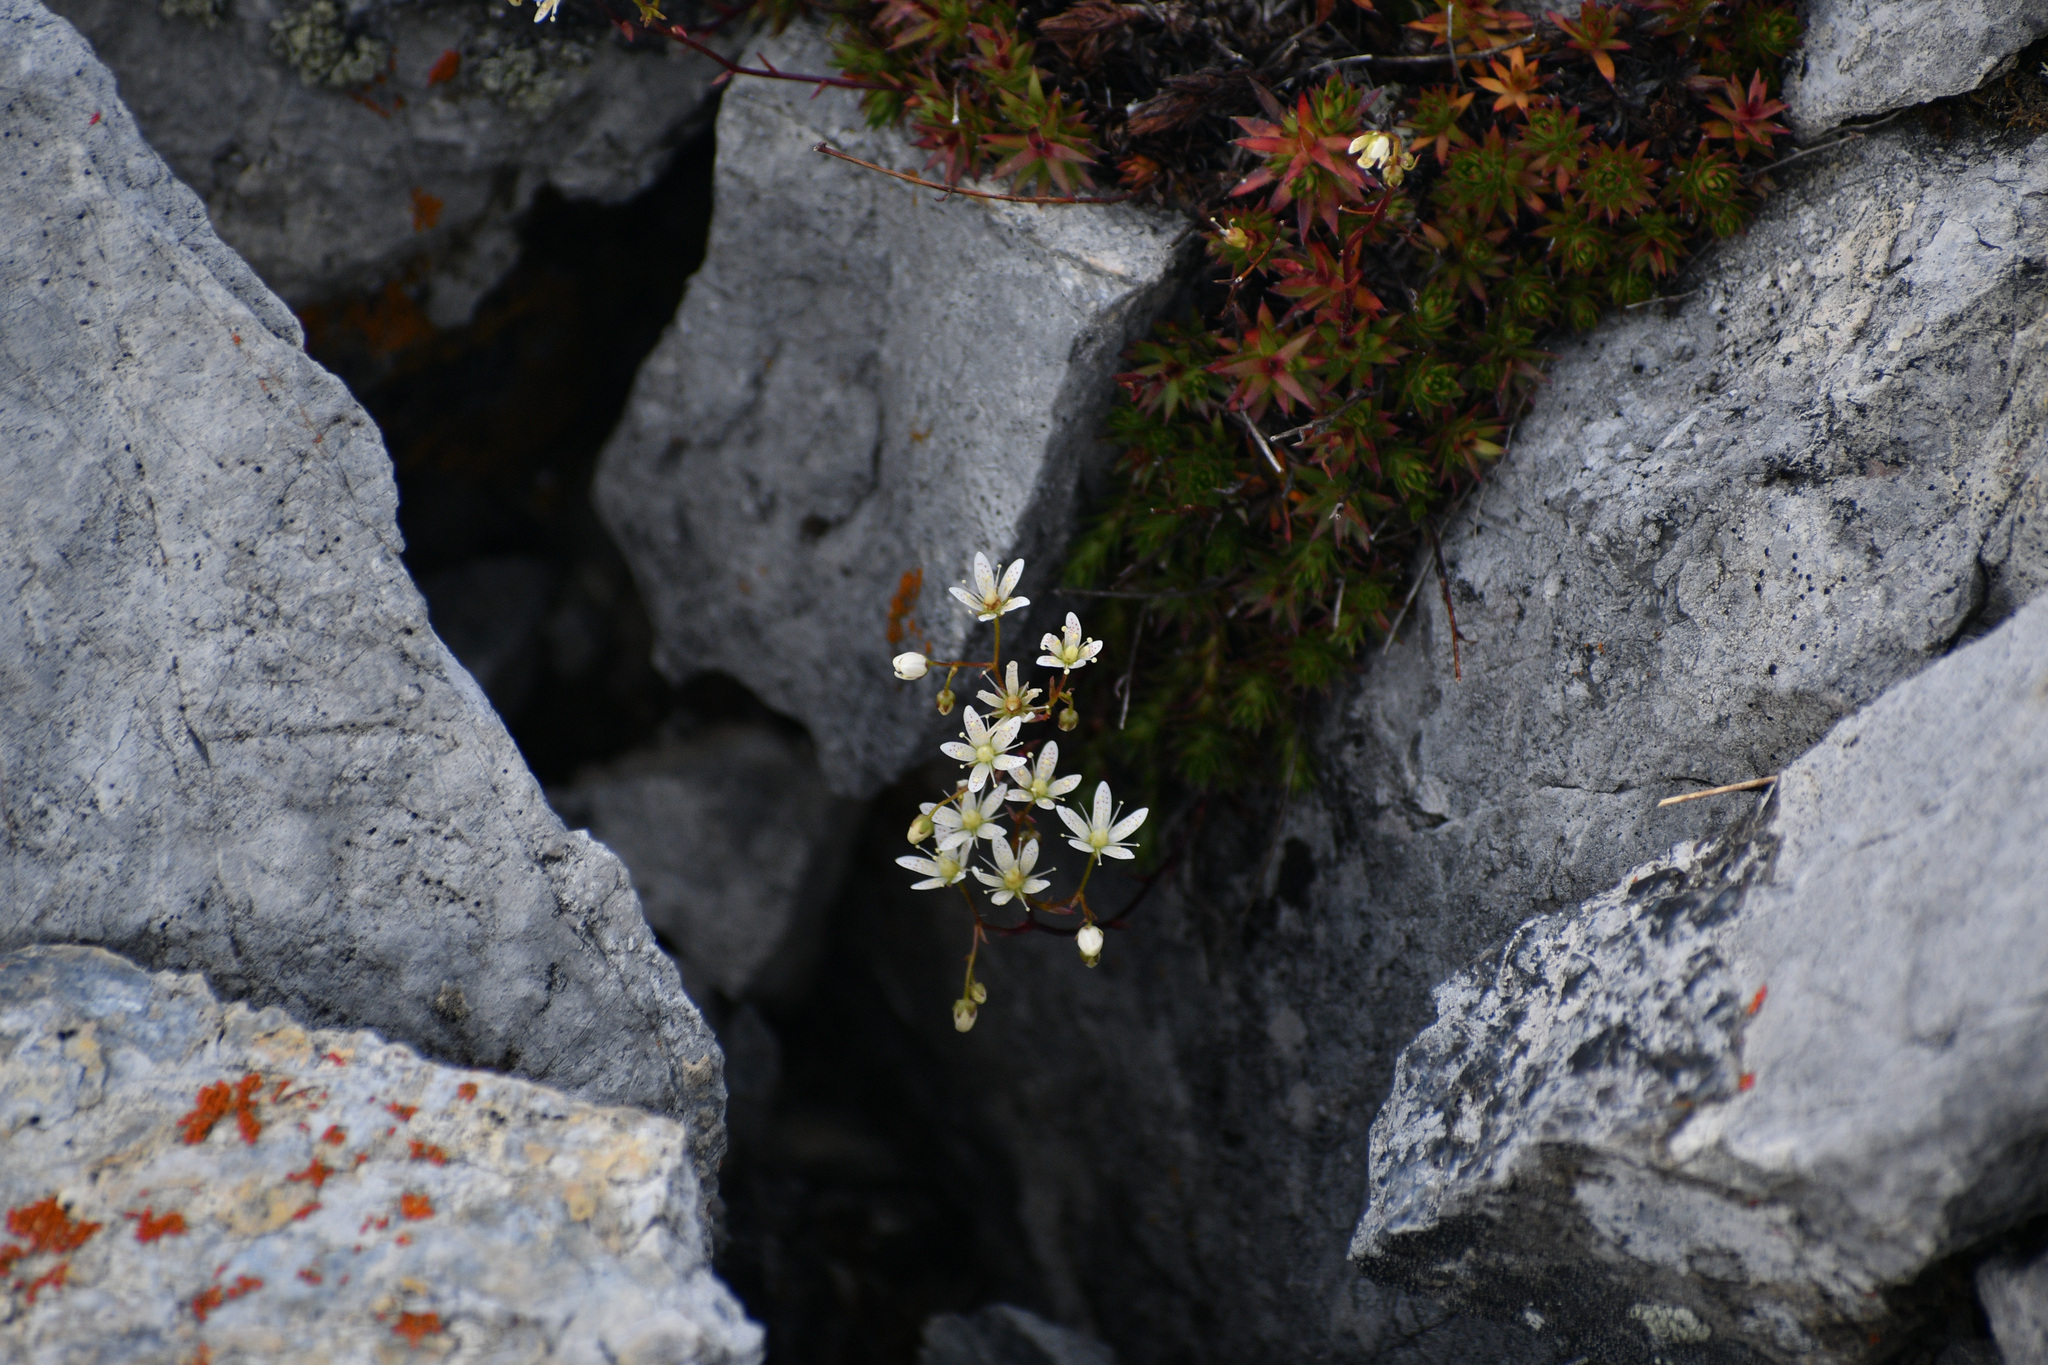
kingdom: Plantae
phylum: Tracheophyta
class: Magnoliopsida
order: Saxifragales
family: Saxifragaceae
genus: Saxifraga
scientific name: Saxifraga bronchialis
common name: Matted saxifrage
